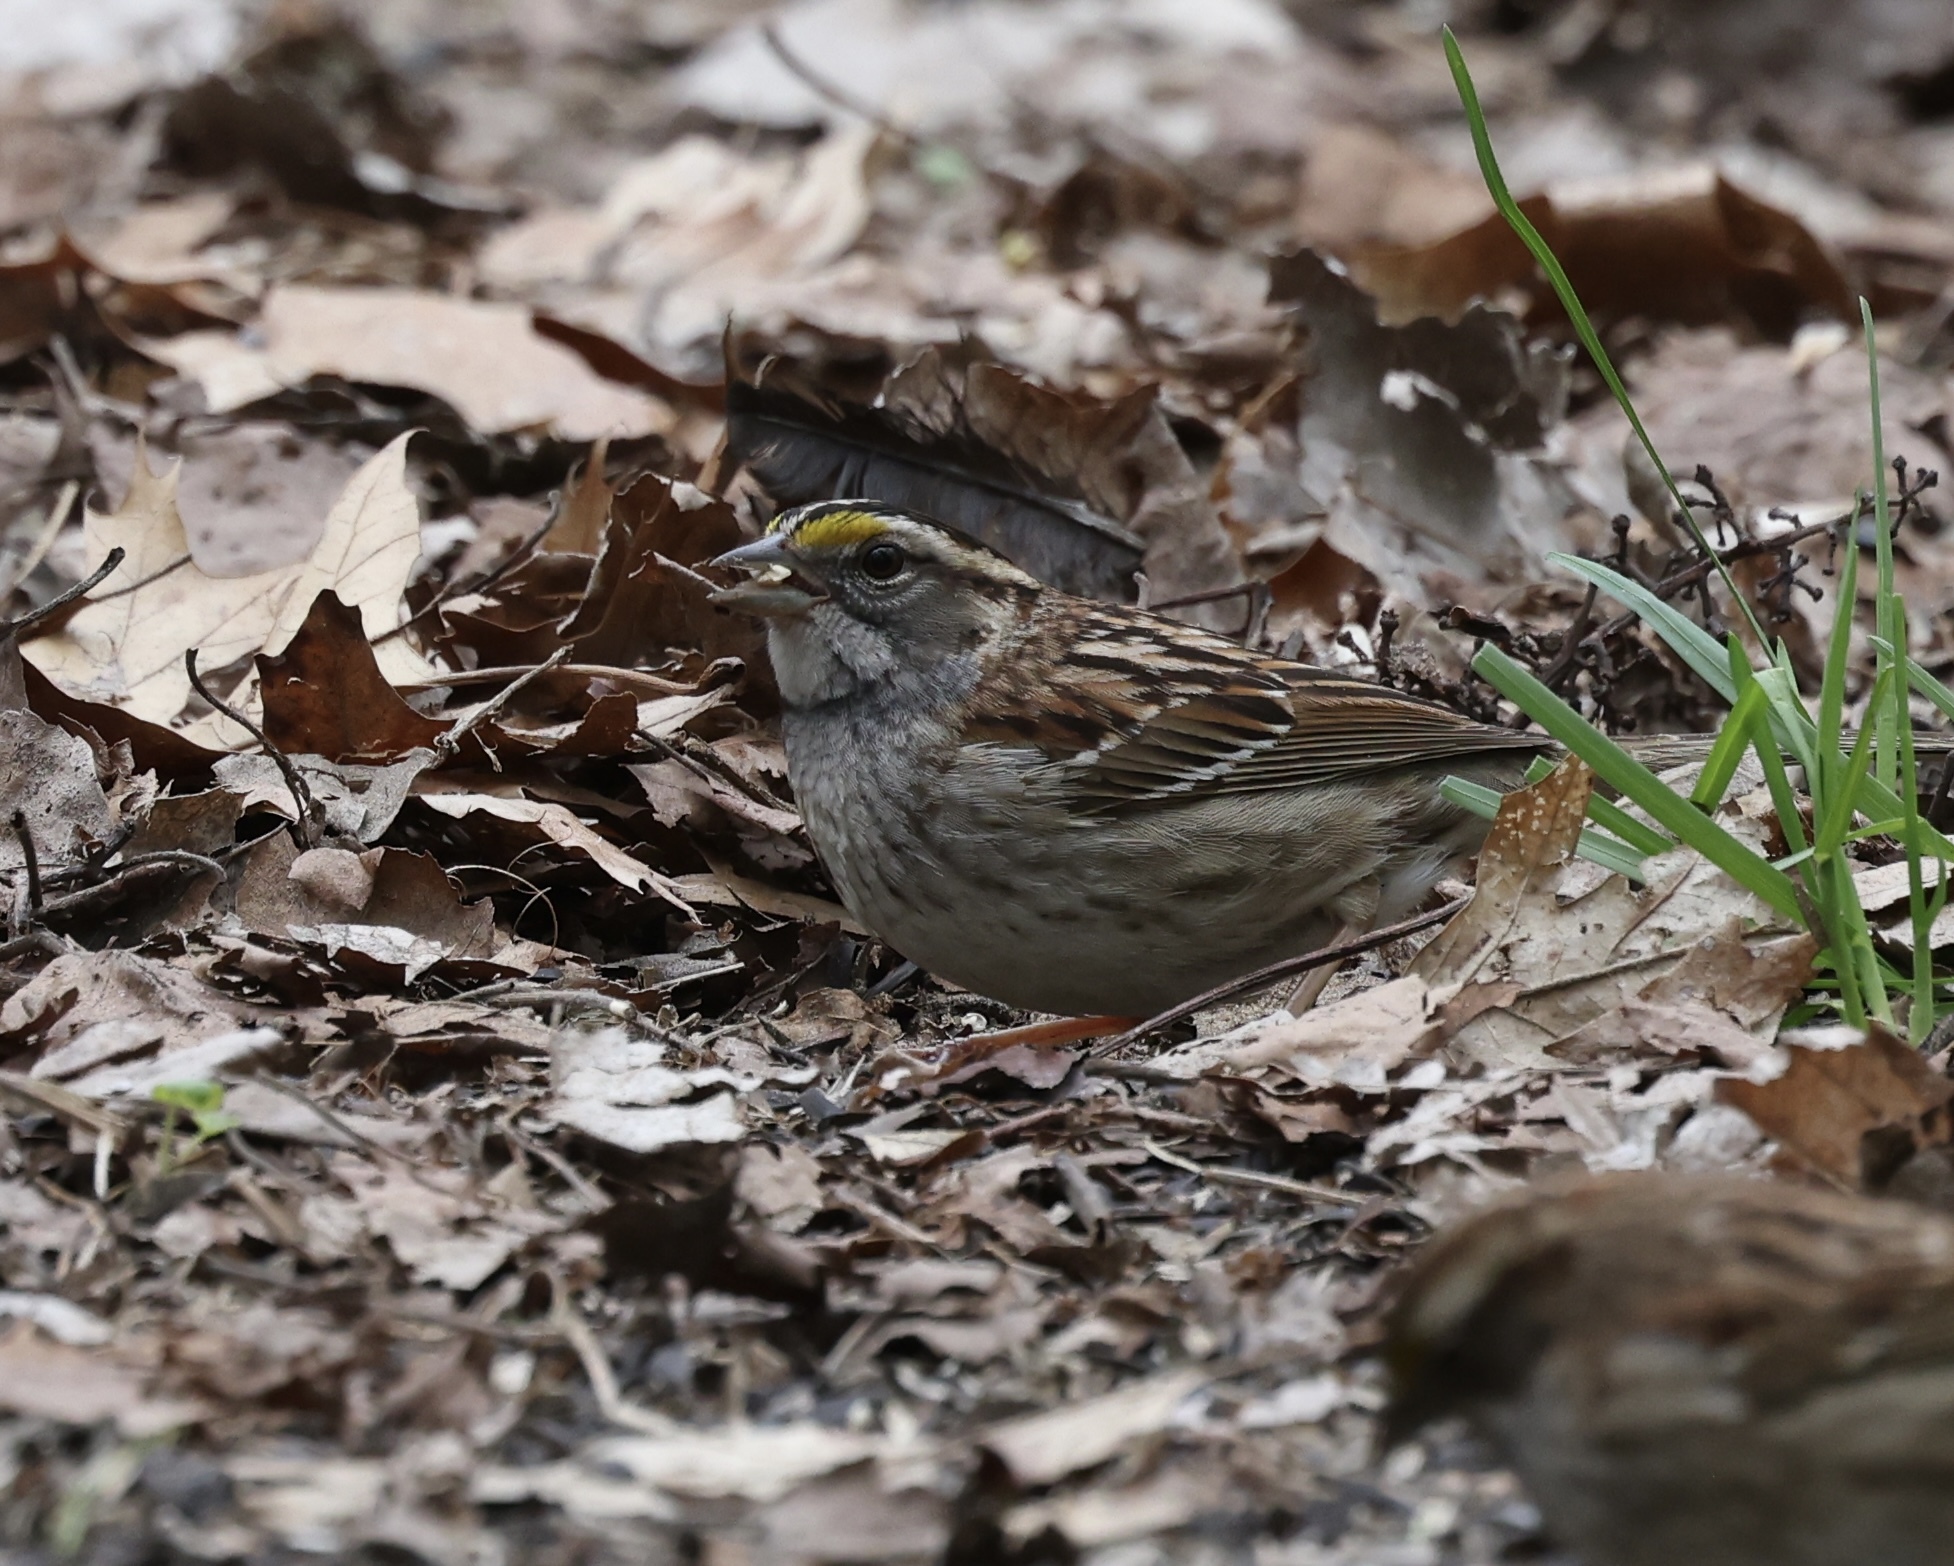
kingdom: Animalia
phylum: Chordata
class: Aves
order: Passeriformes
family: Passerellidae
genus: Zonotrichia
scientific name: Zonotrichia albicollis
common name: White-throated sparrow
